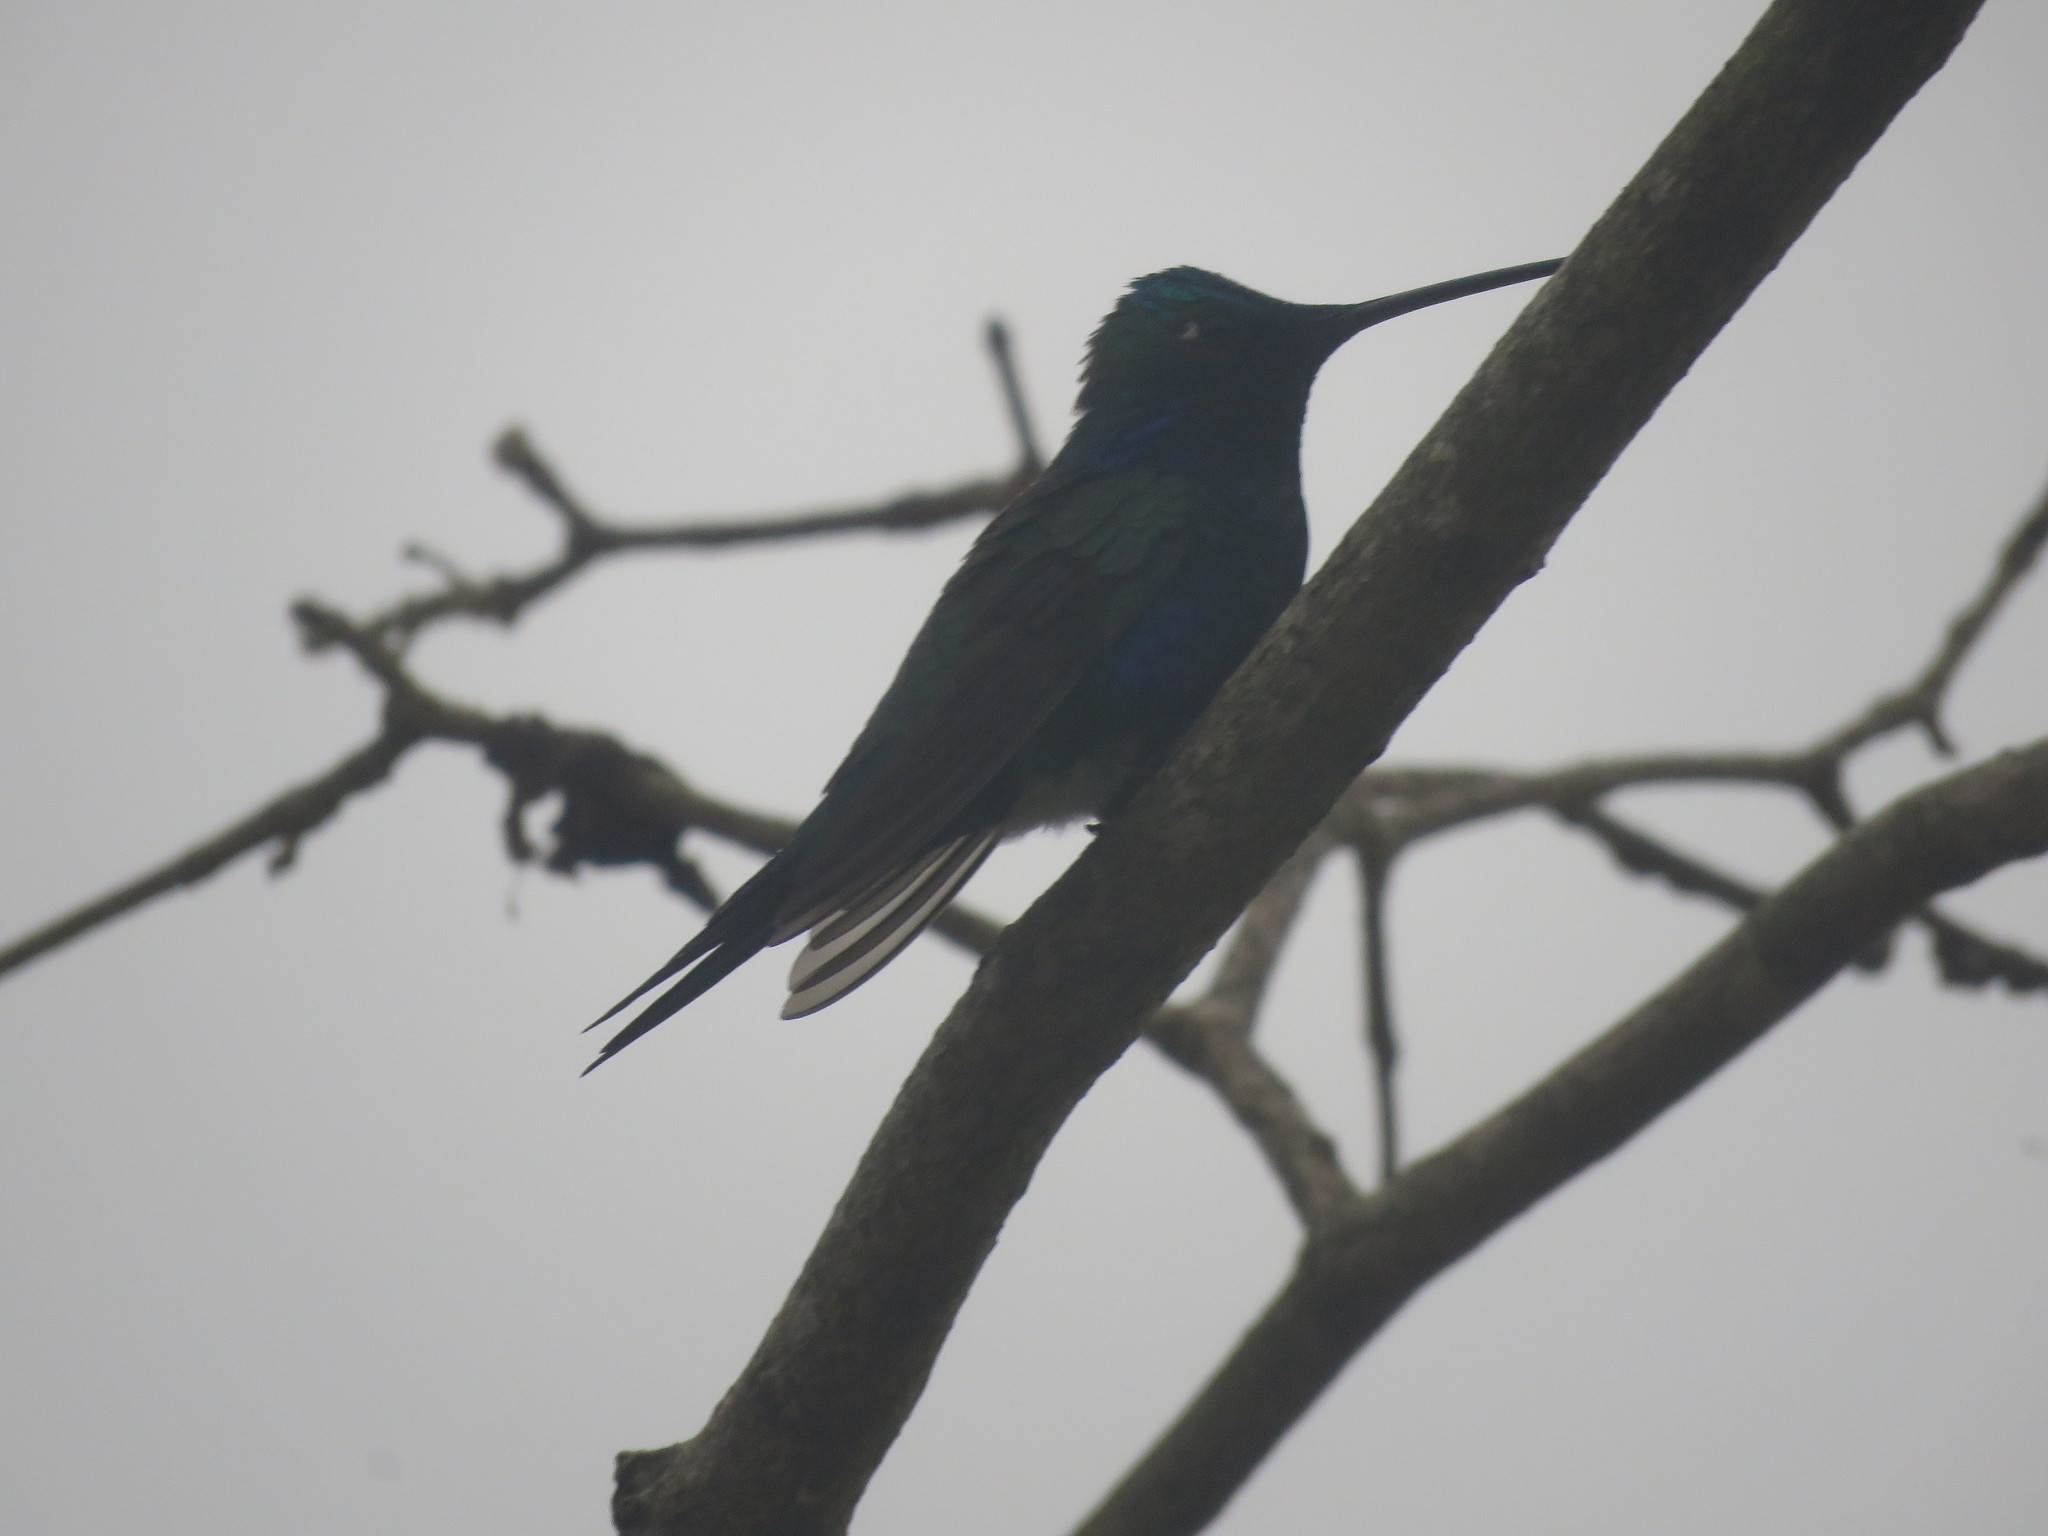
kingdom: Animalia
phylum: Chordata
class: Aves
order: Apodiformes
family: Trochilidae
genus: Heliomaster
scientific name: Heliomaster furcifer
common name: Blue-tufted starthroat
